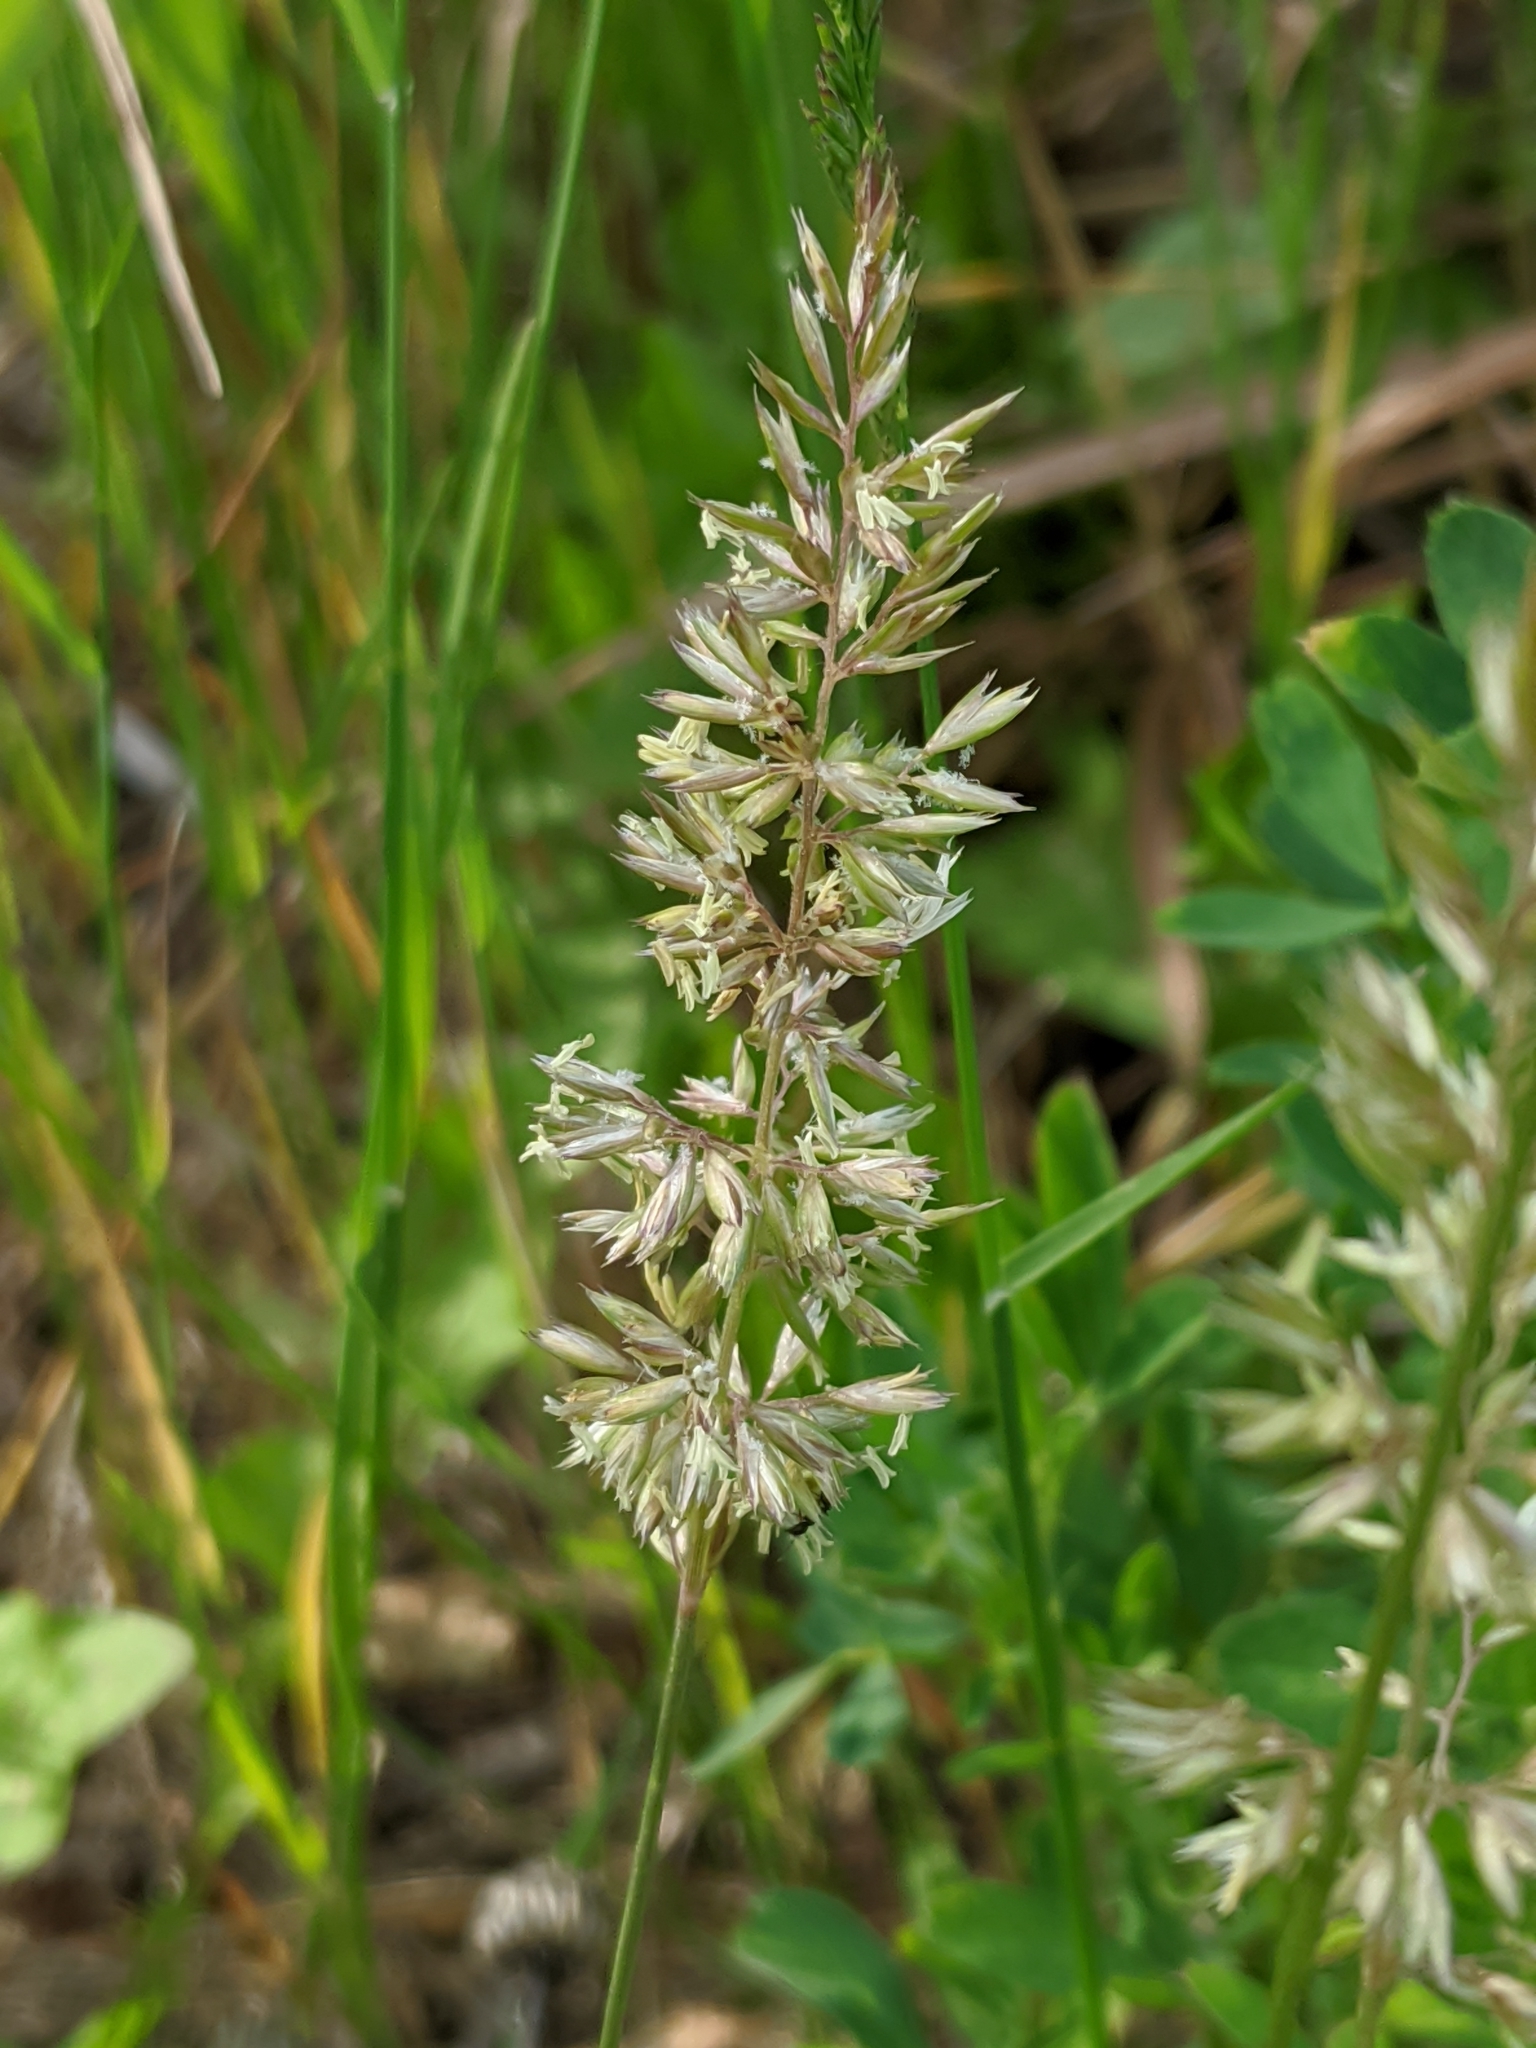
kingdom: Plantae
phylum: Tracheophyta
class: Liliopsida
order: Poales
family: Poaceae
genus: Koeleria
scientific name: Koeleria macrantha
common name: Crested hair-grass
